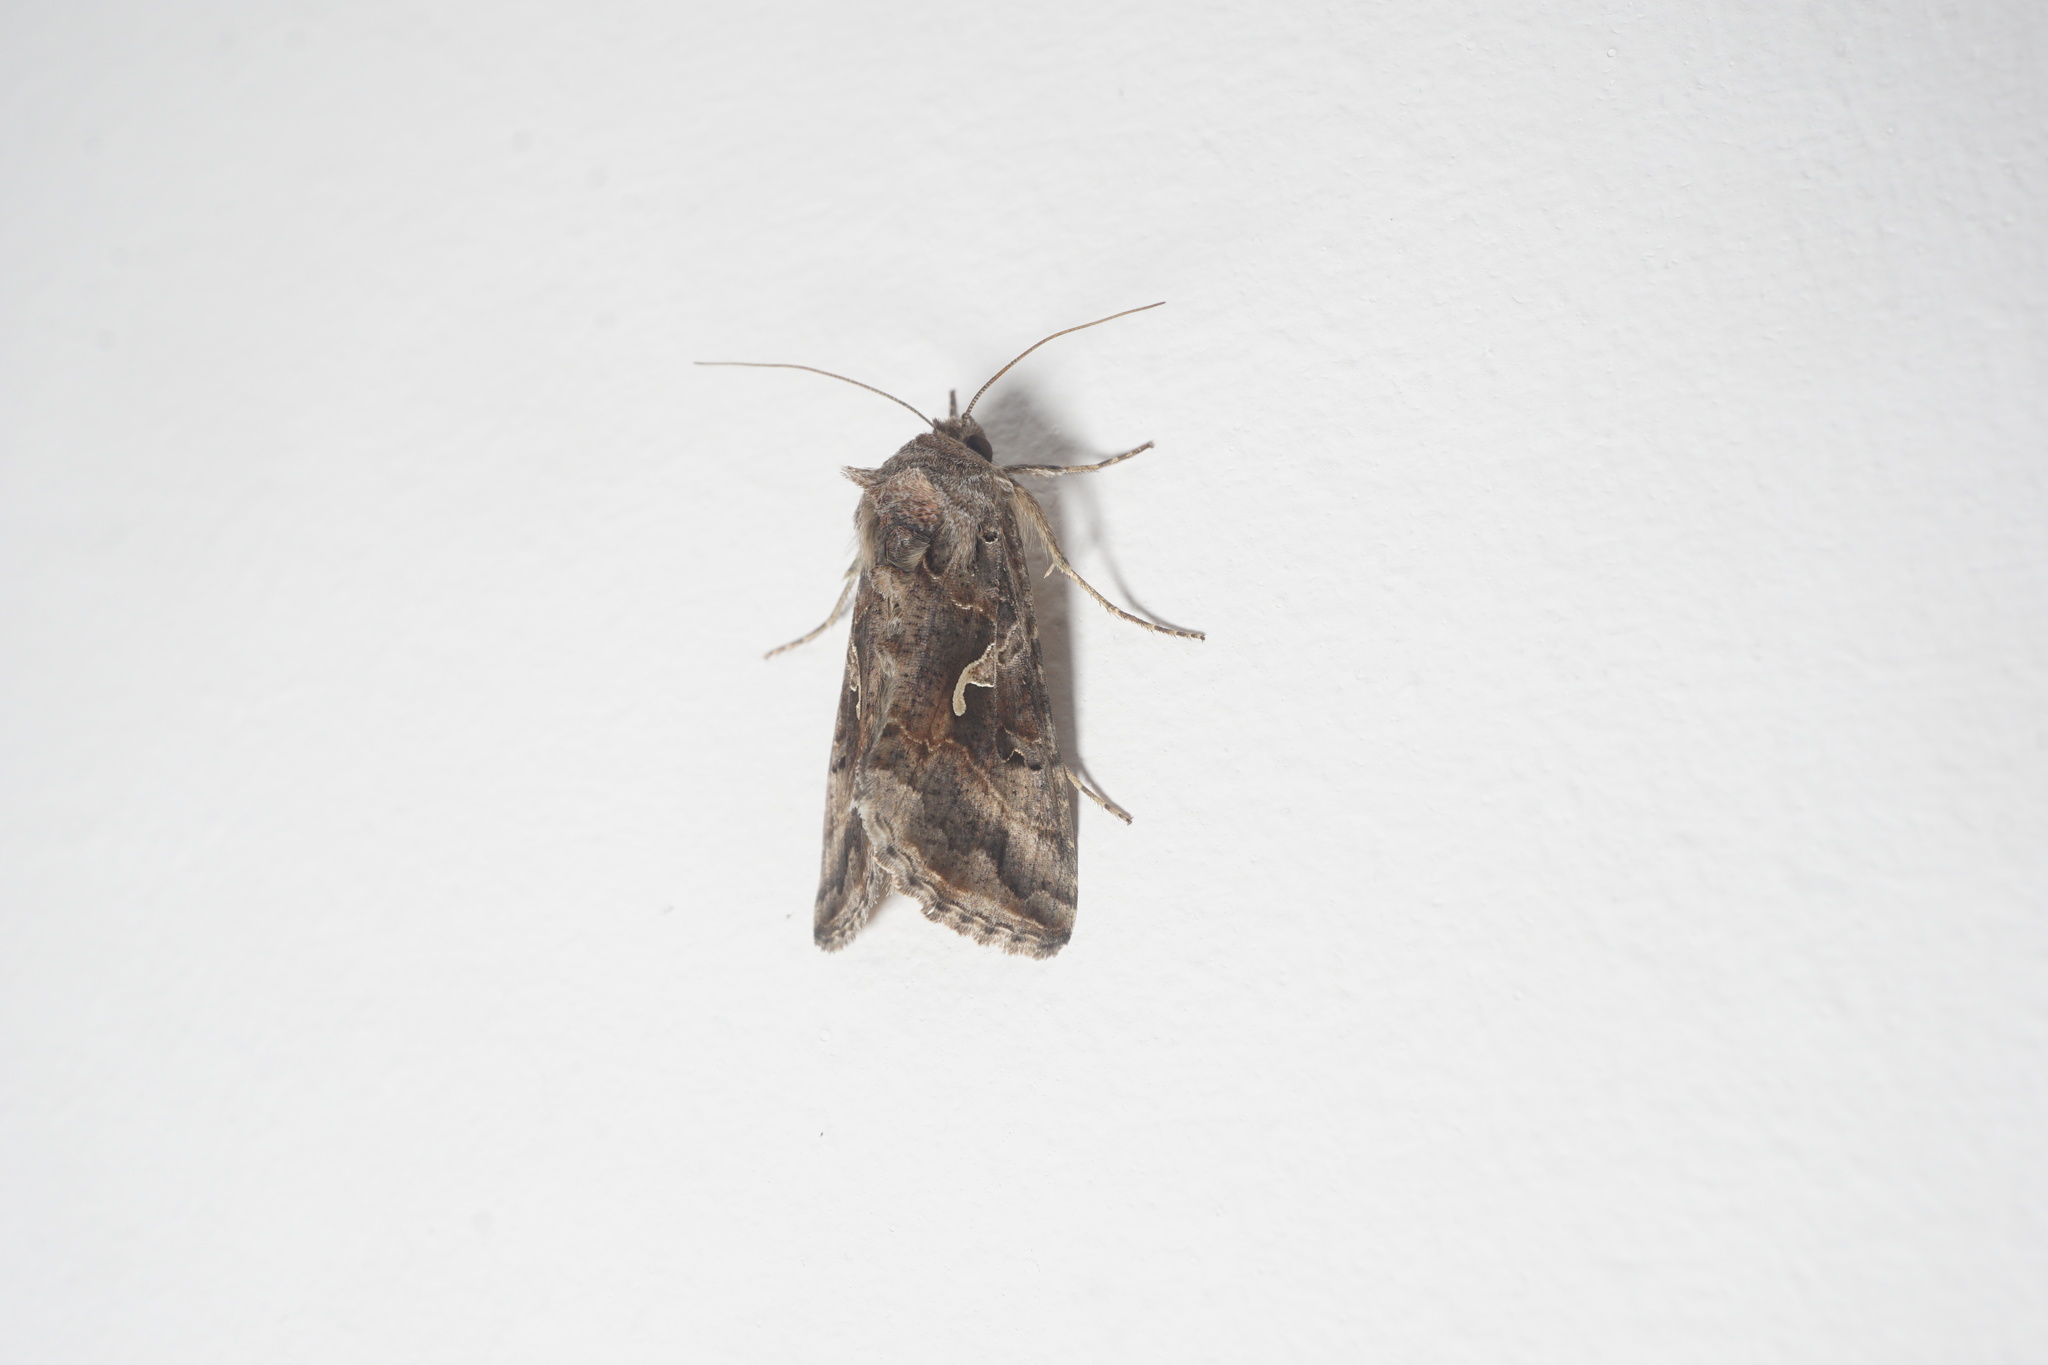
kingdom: Animalia
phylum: Arthropoda
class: Insecta
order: Lepidoptera
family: Noctuidae
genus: Autographa
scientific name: Autographa gamma
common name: Silver y
